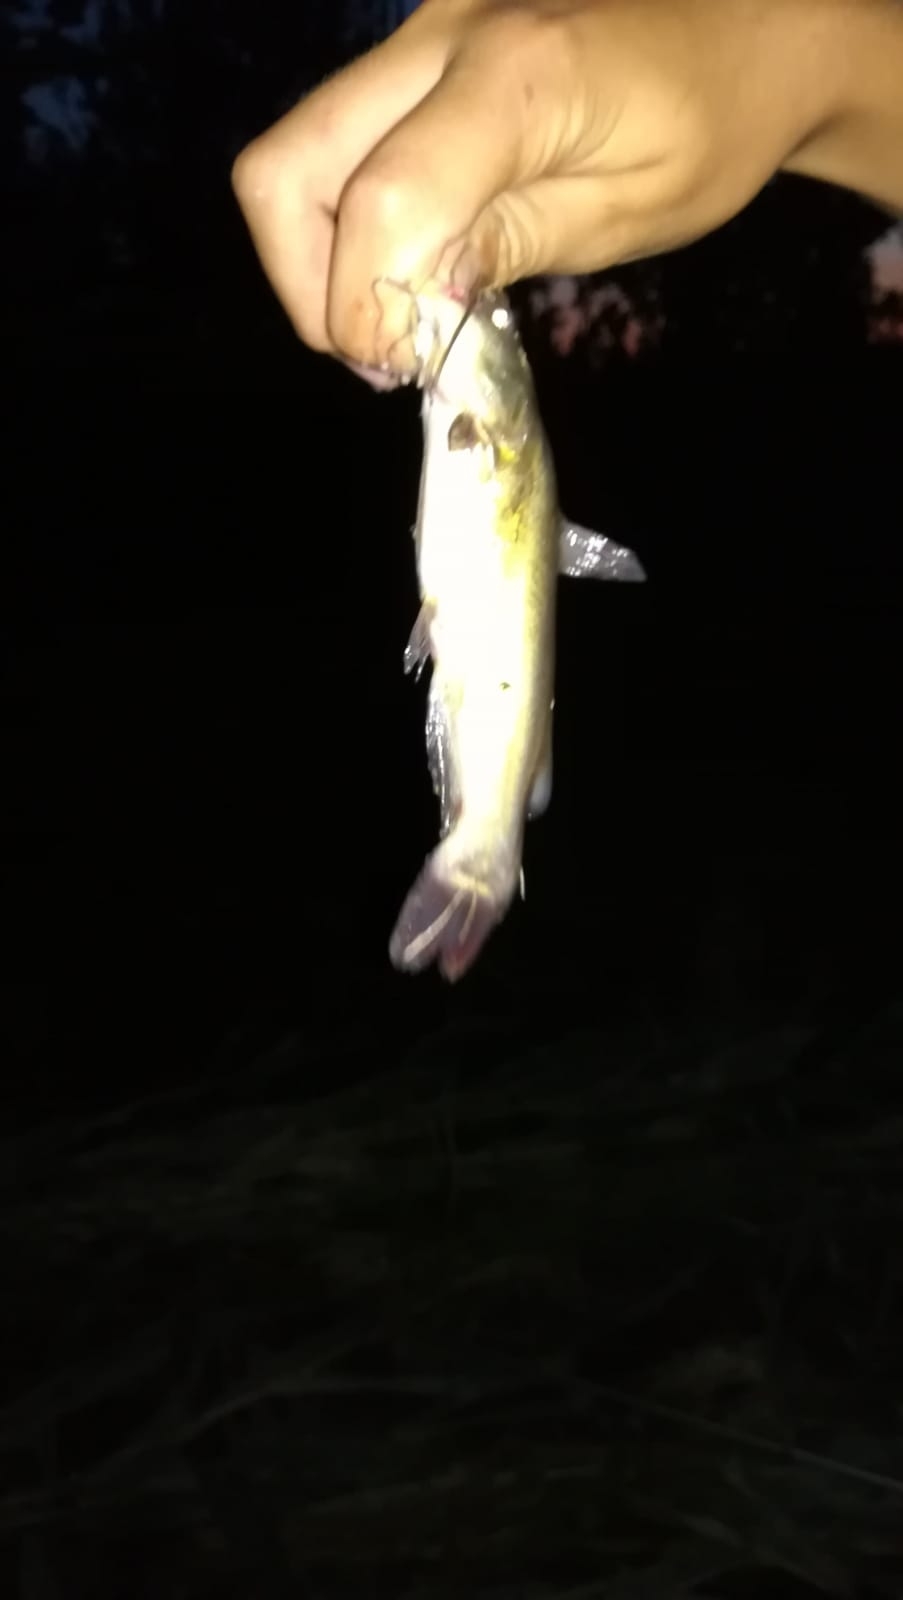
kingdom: Animalia
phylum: Chordata
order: Siluriformes
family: Ictaluridae
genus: Ameiurus
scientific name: Ameiurus melas
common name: Black bullhead
